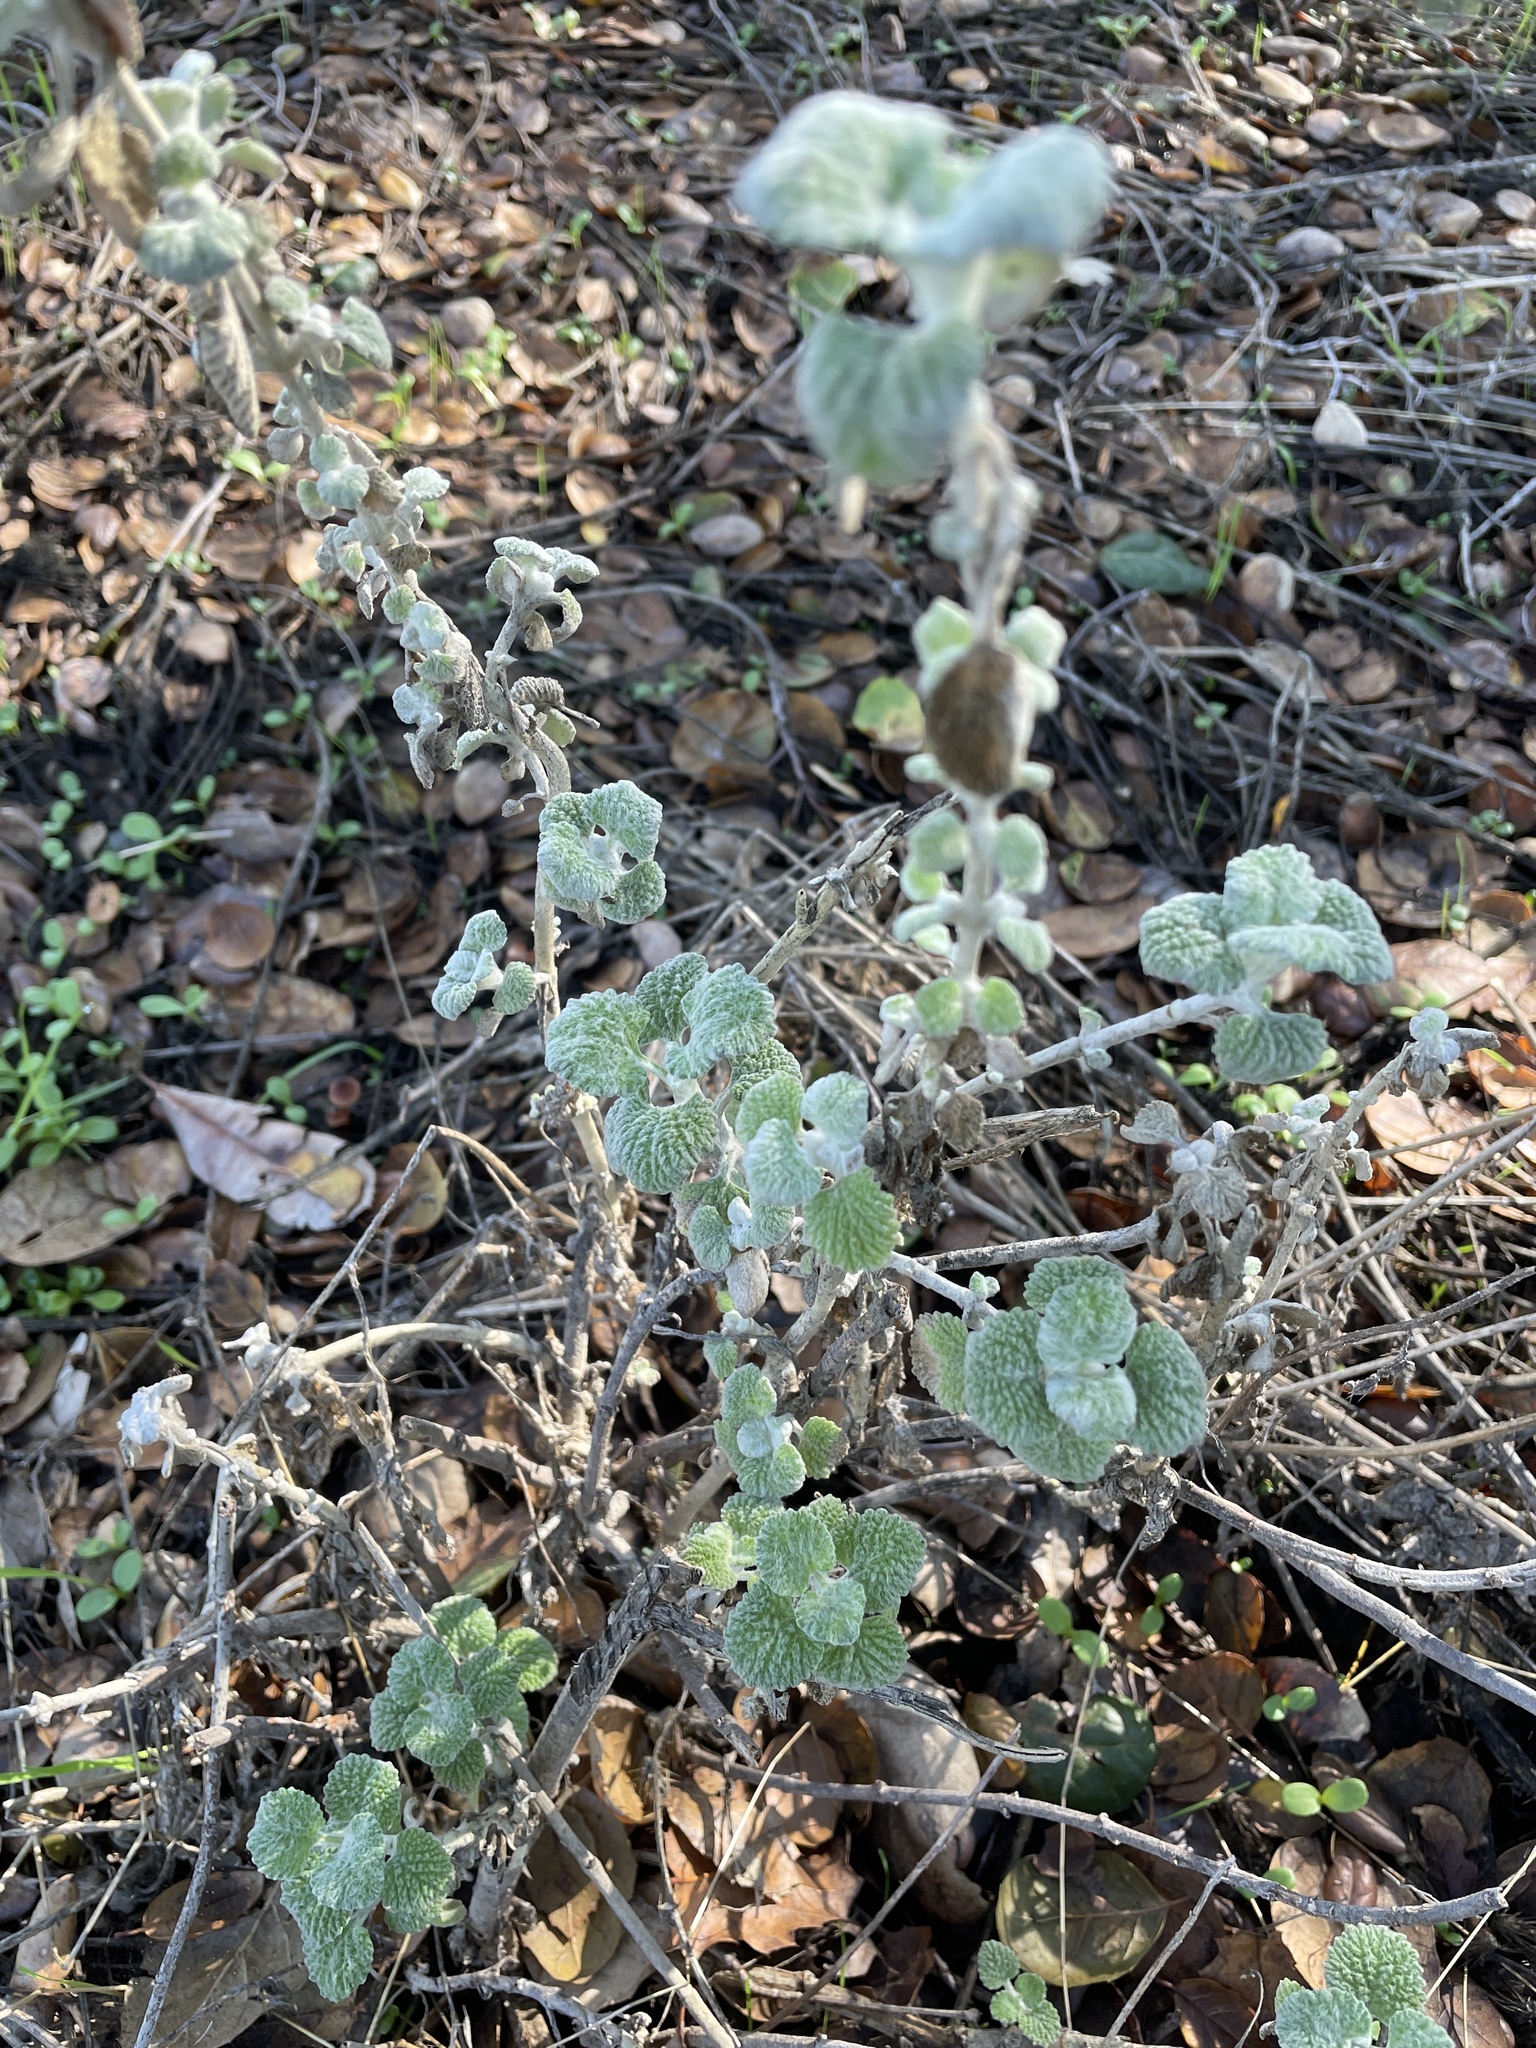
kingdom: Plantae
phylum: Tracheophyta
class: Magnoliopsida
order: Lamiales
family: Lamiaceae
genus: Marrubium
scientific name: Marrubium vulgare
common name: Horehound
